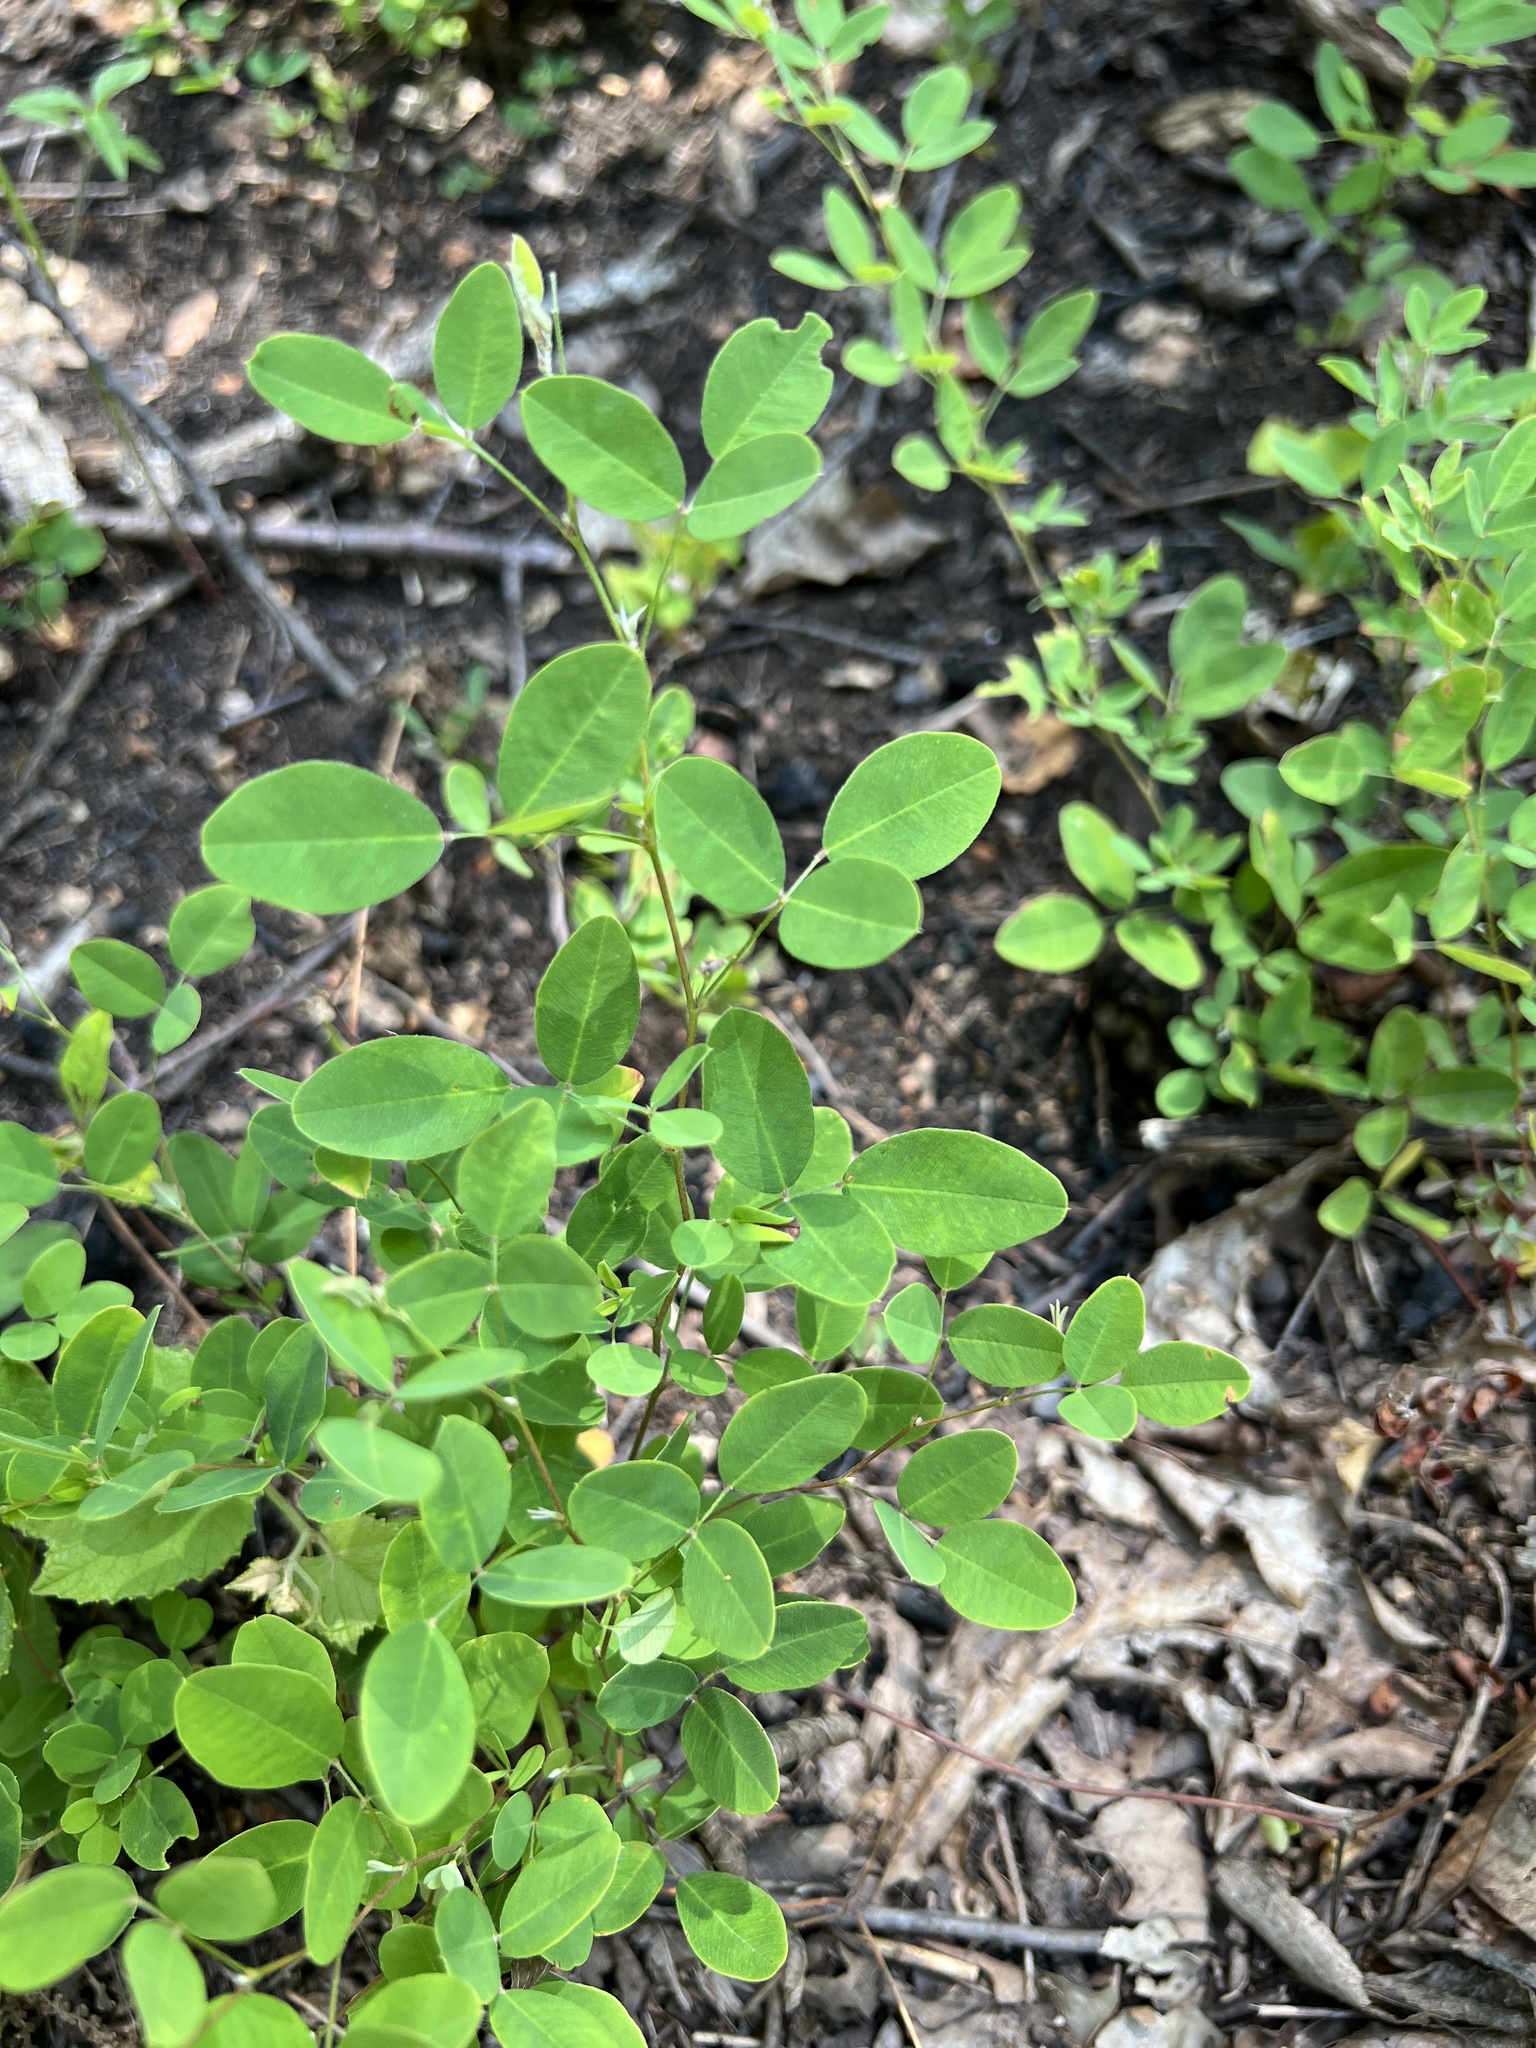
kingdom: Plantae
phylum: Tracheophyta
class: Magnoliopsida
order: Fabales
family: Fabaceae
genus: Lespedeza
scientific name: Lespedeza
